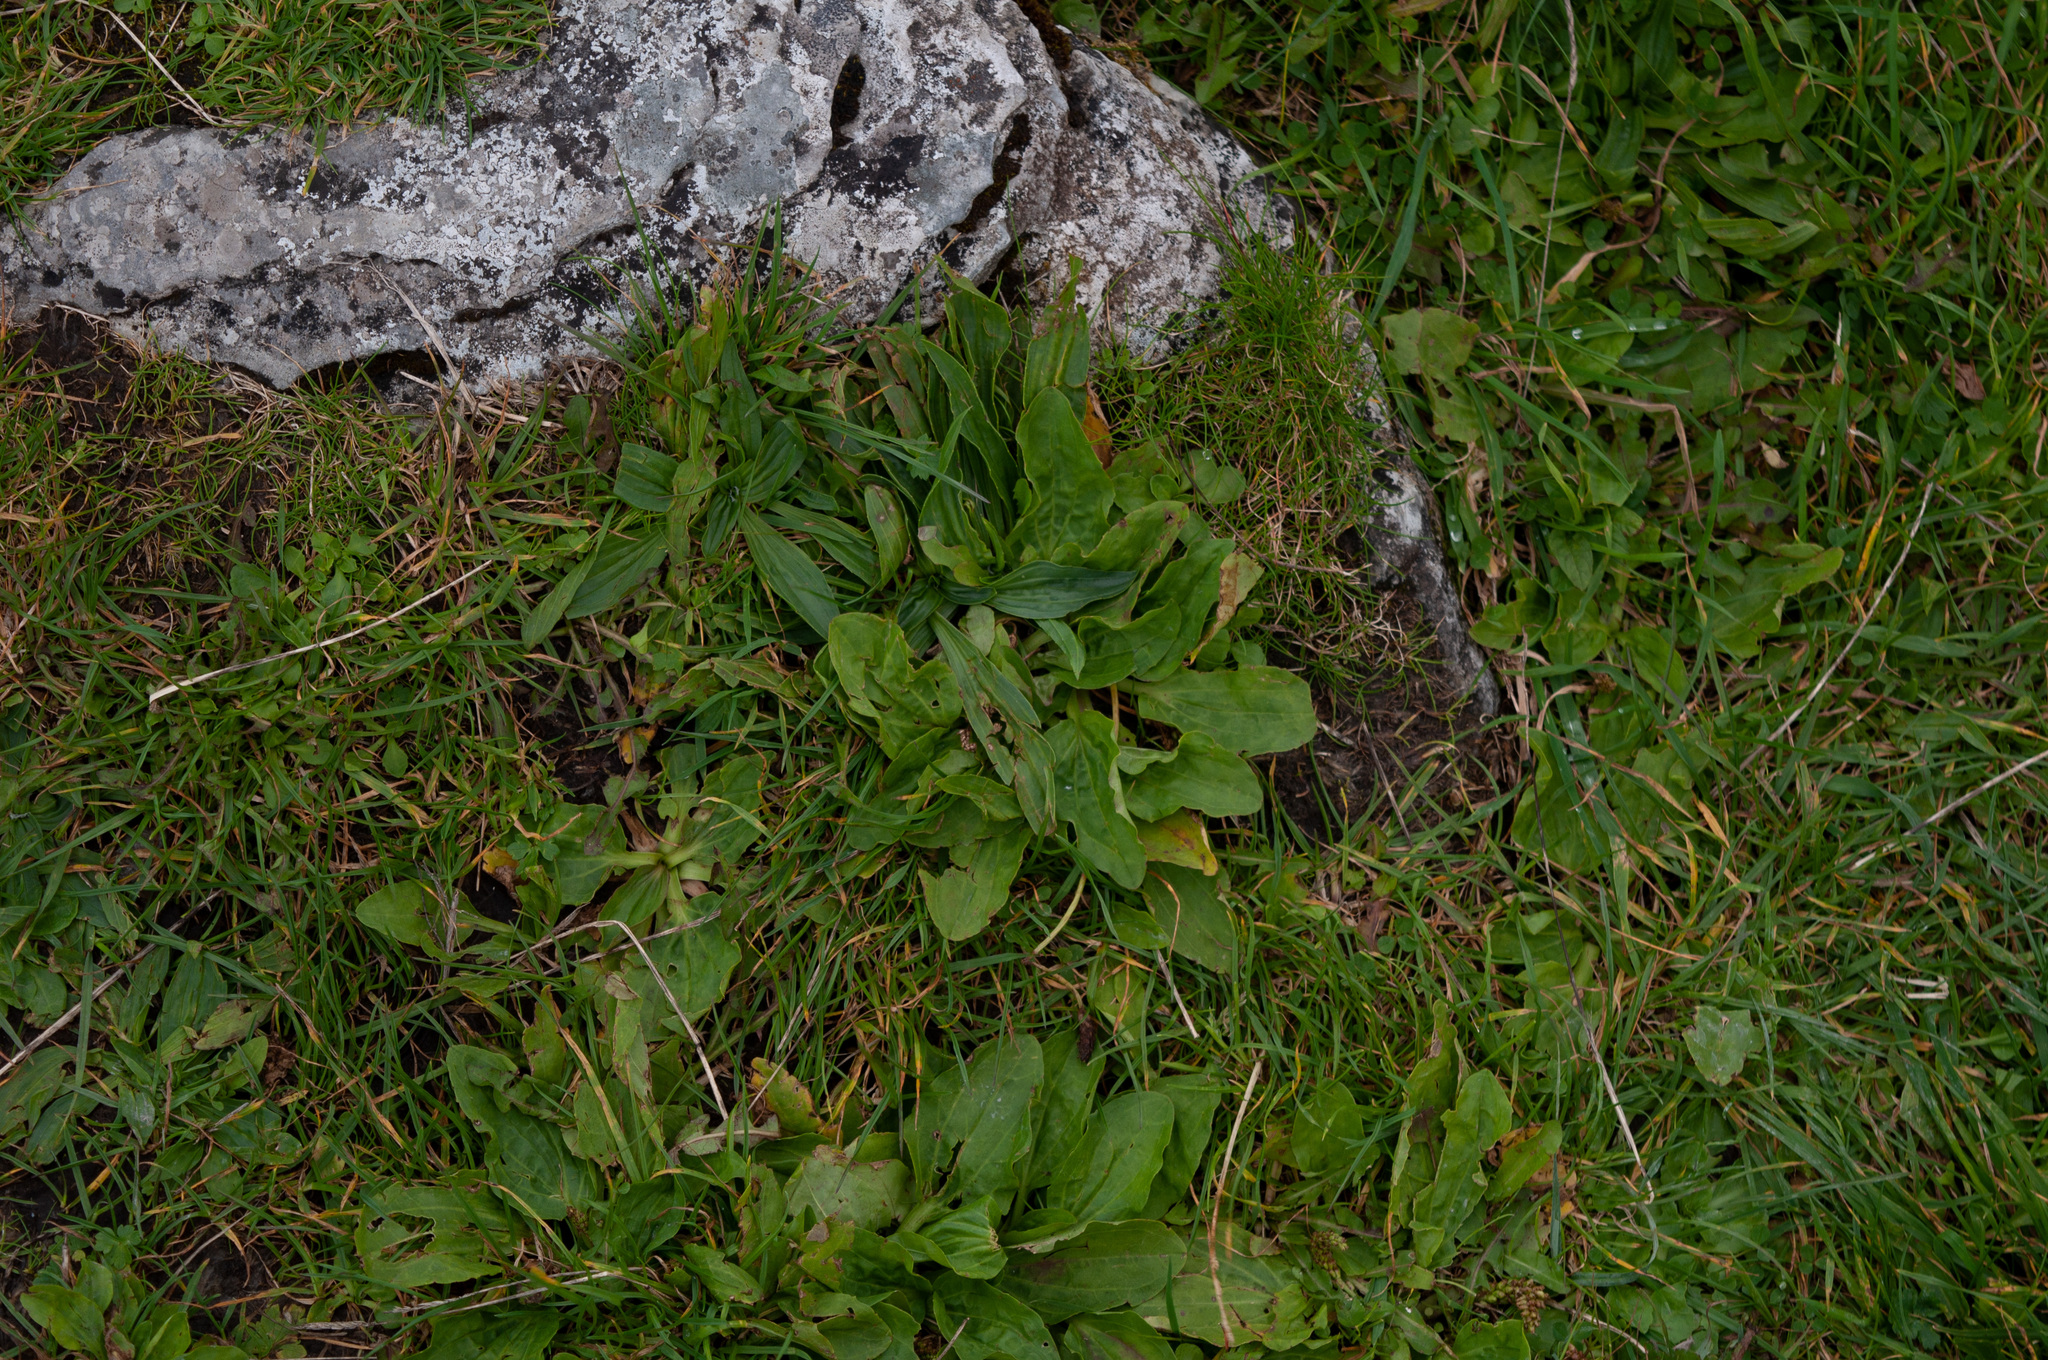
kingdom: Plantae
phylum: Tracheophyta
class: Magnoliopsida
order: Lamiales
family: Plantaginaceae
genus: Plantago
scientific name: Plantago major
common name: Common plantain
